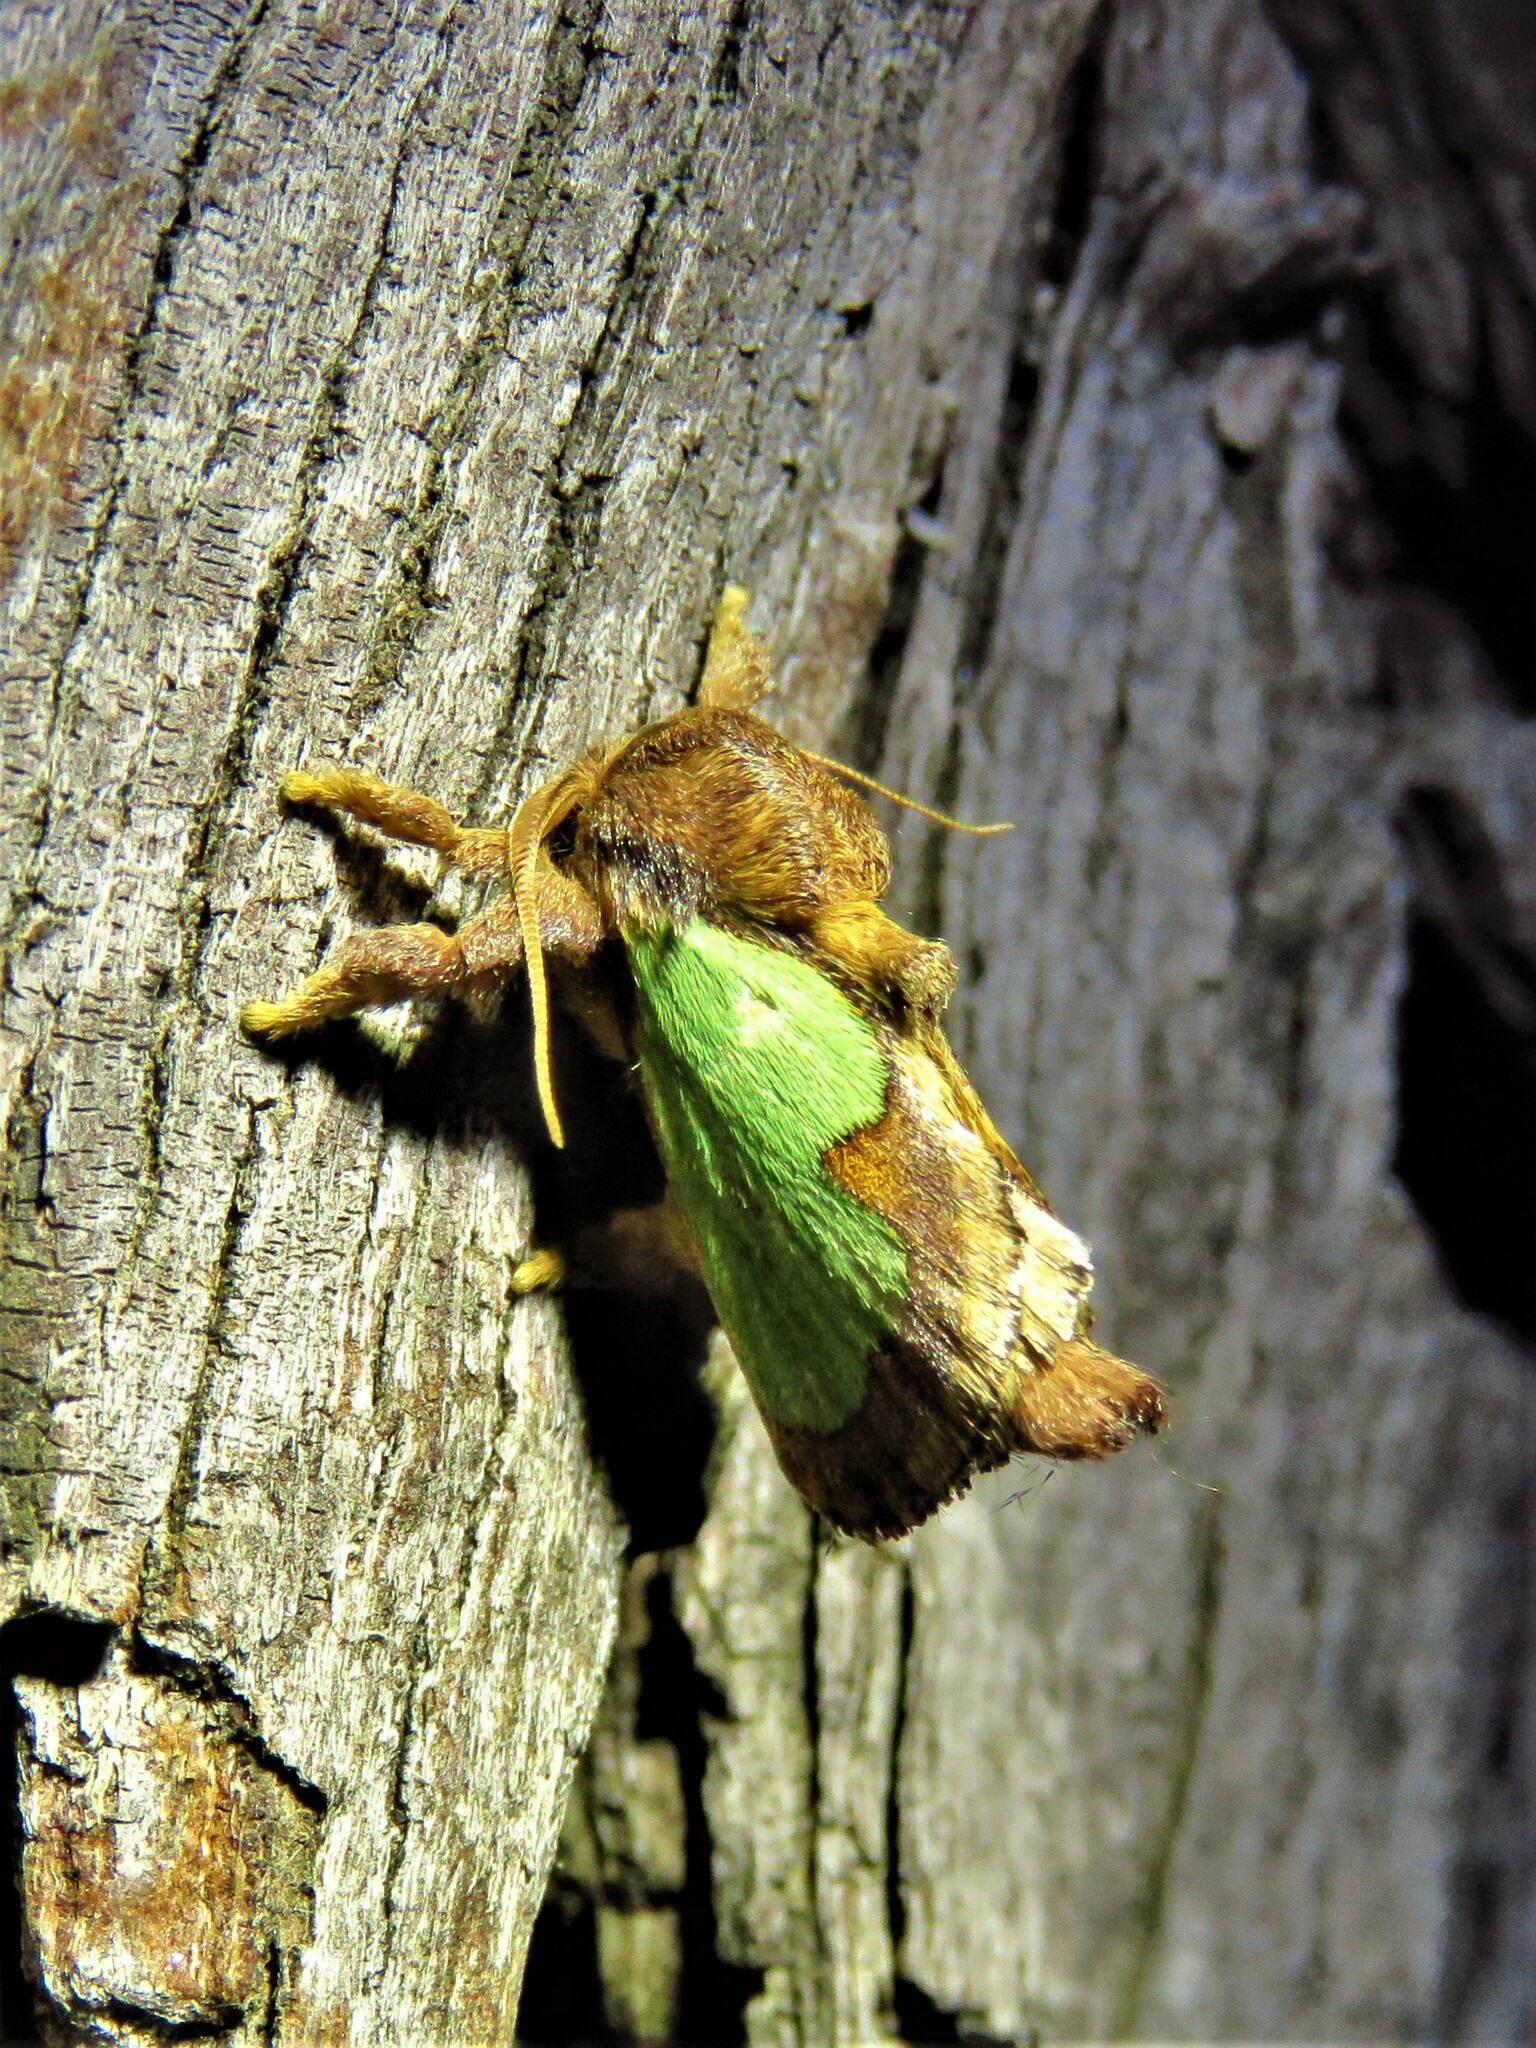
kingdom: Animalia
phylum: Arthropoda
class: Insecta
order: Lepidoptera
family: Limacodidae
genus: Euclea
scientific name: Euclea incisa
